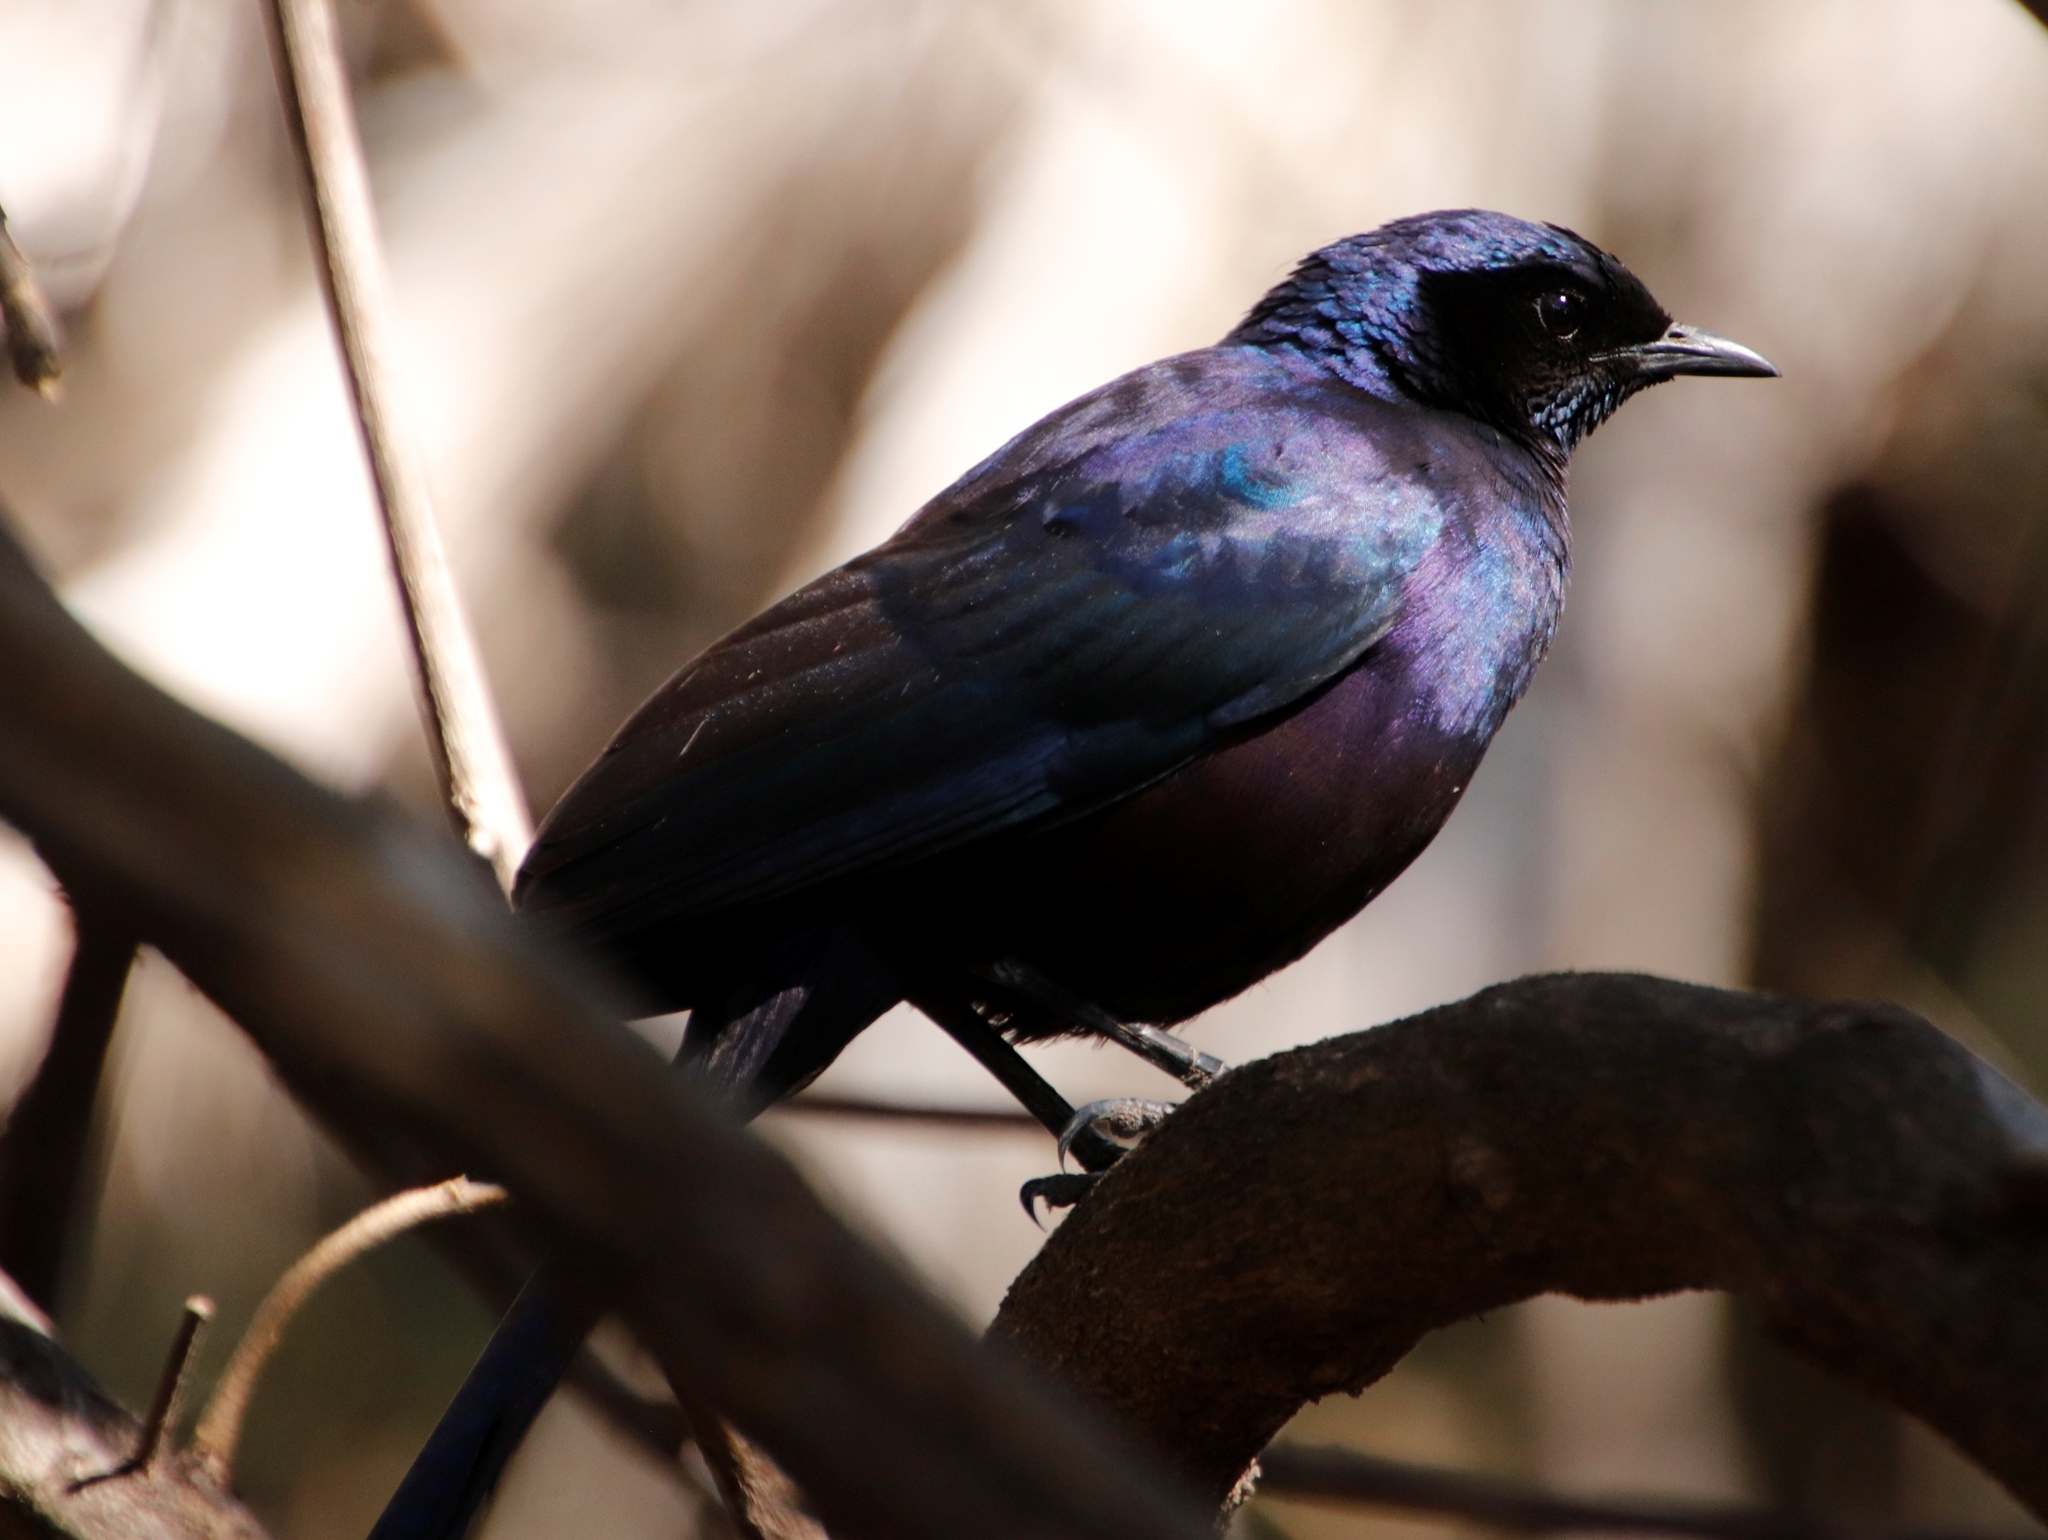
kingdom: Animalia
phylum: Chordata
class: Aves
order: Passeriformes
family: Sturnidae
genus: Lamprotornis
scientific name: Lamprotornis mevesii
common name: Meves's starling
